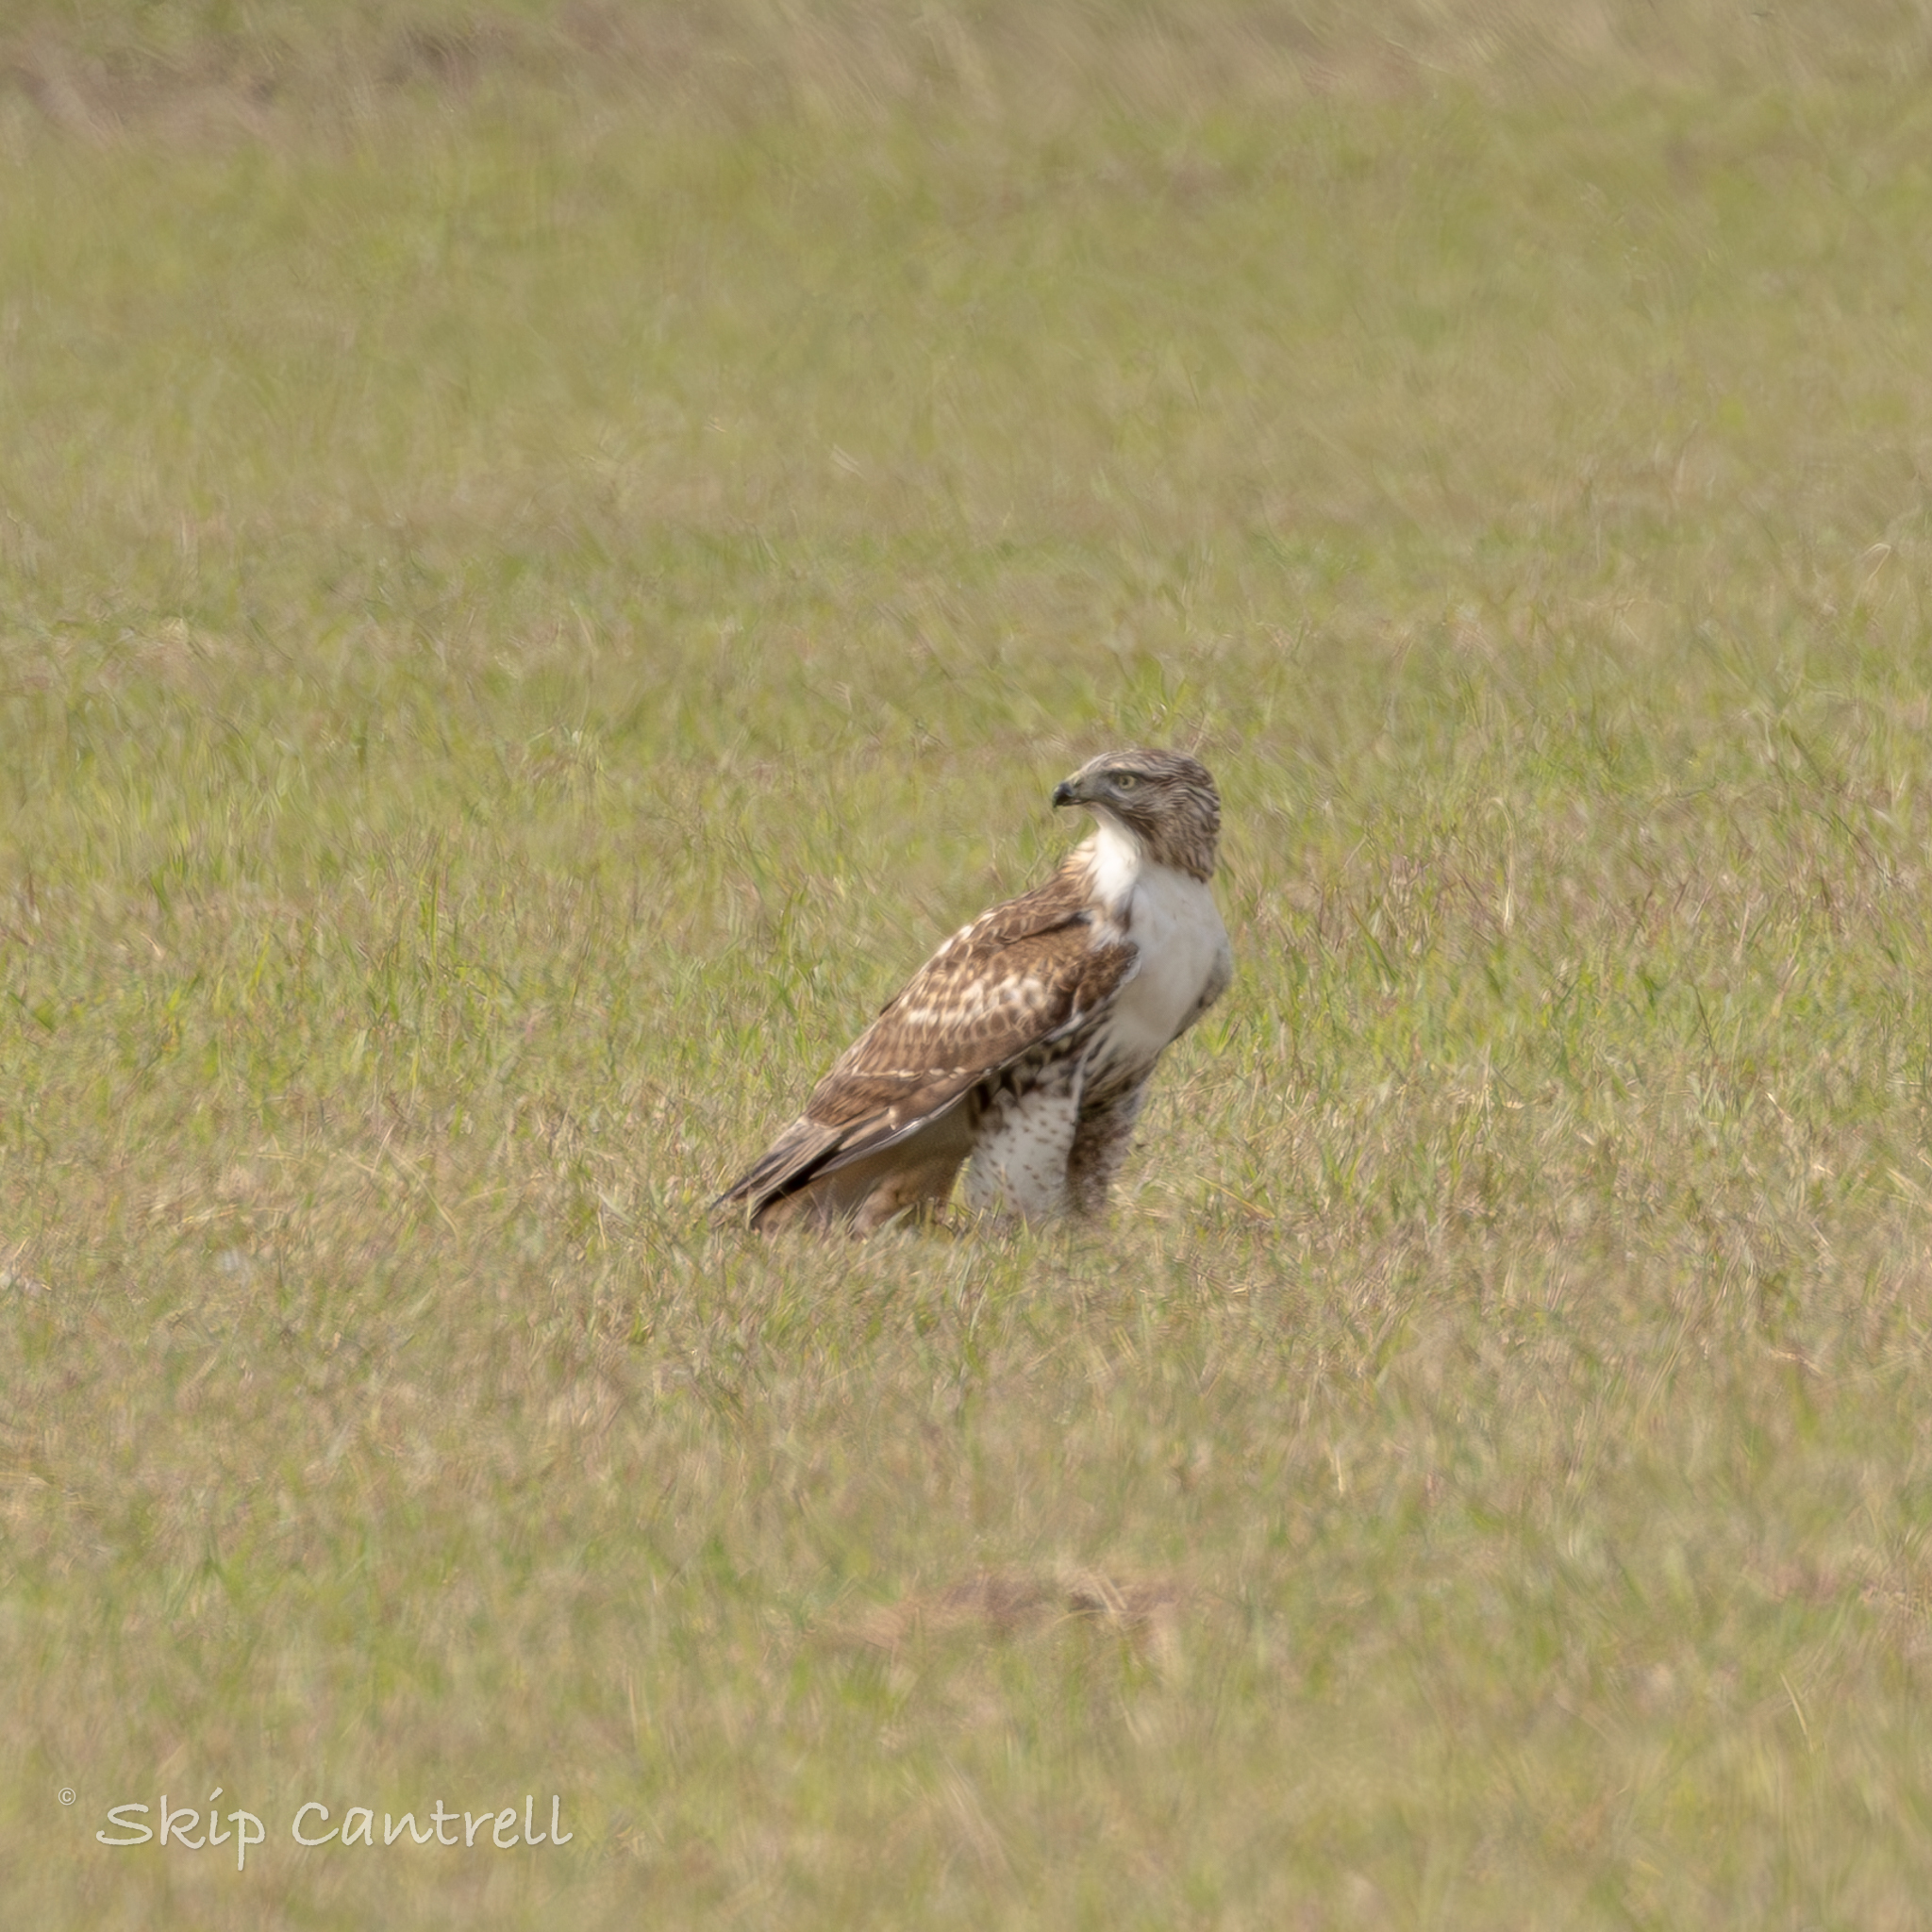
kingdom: Animalia
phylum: Chordata
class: Aves
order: Accipitriformes
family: Accipitridae
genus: Buteo
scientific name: Buteo jamaicensis
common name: Red-tailed hawk
